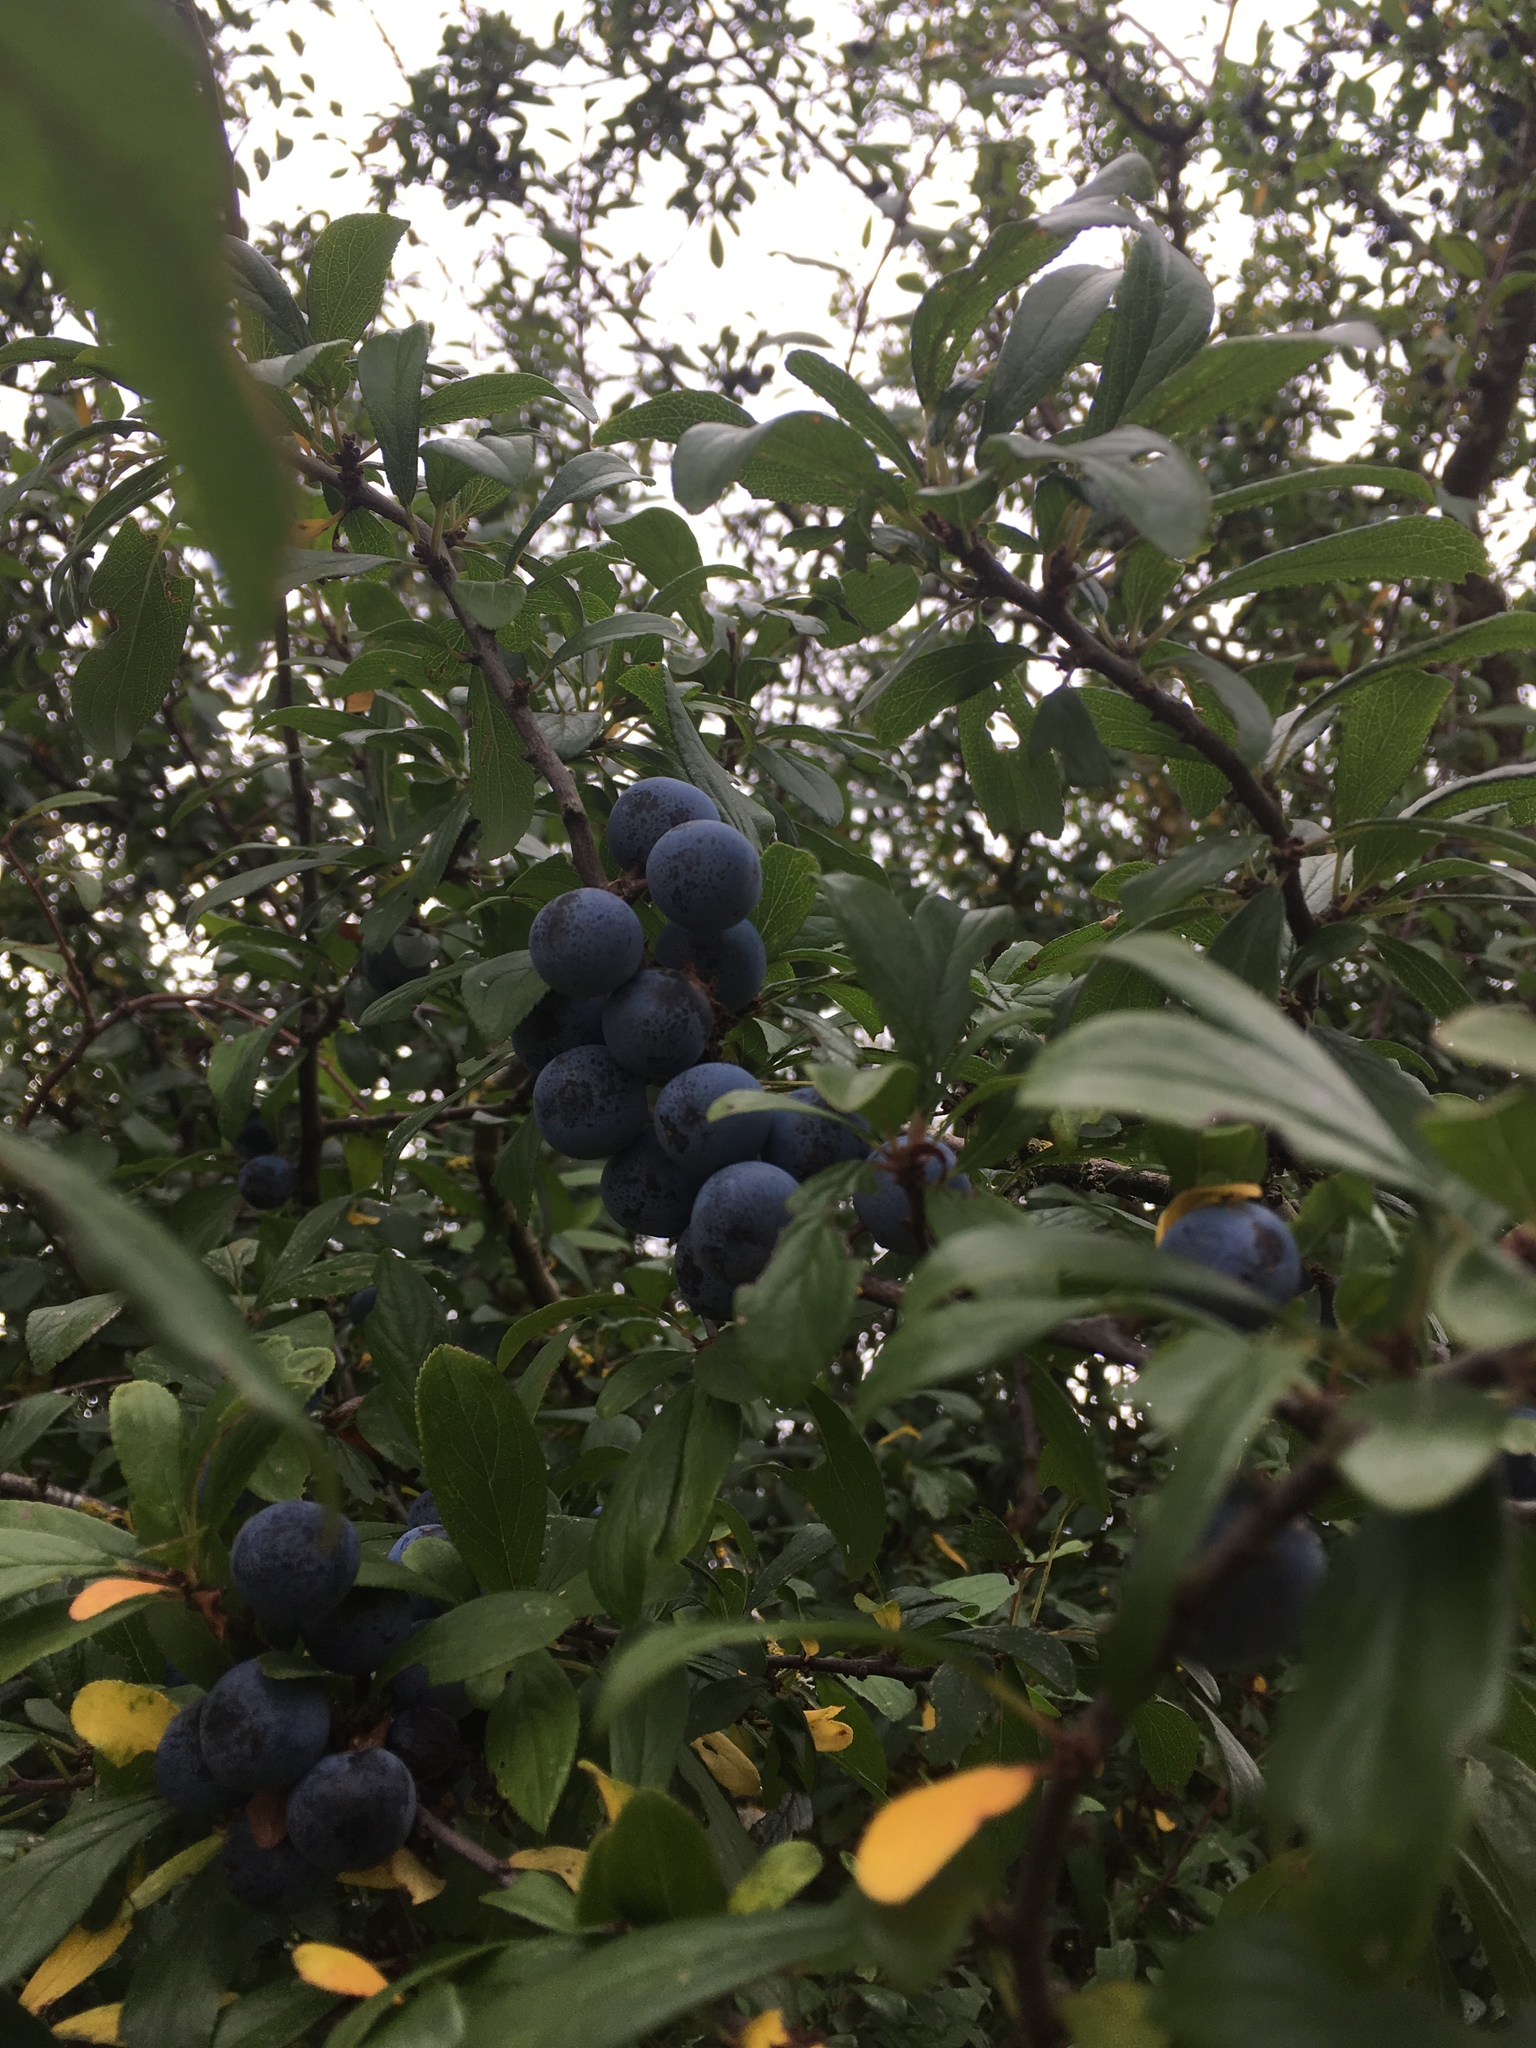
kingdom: Plantae
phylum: Tracheophyta
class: Magnoliopsida
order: Rosales
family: Rosaceae
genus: Prunus
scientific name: Prunus spinosa
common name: Blackthorn
